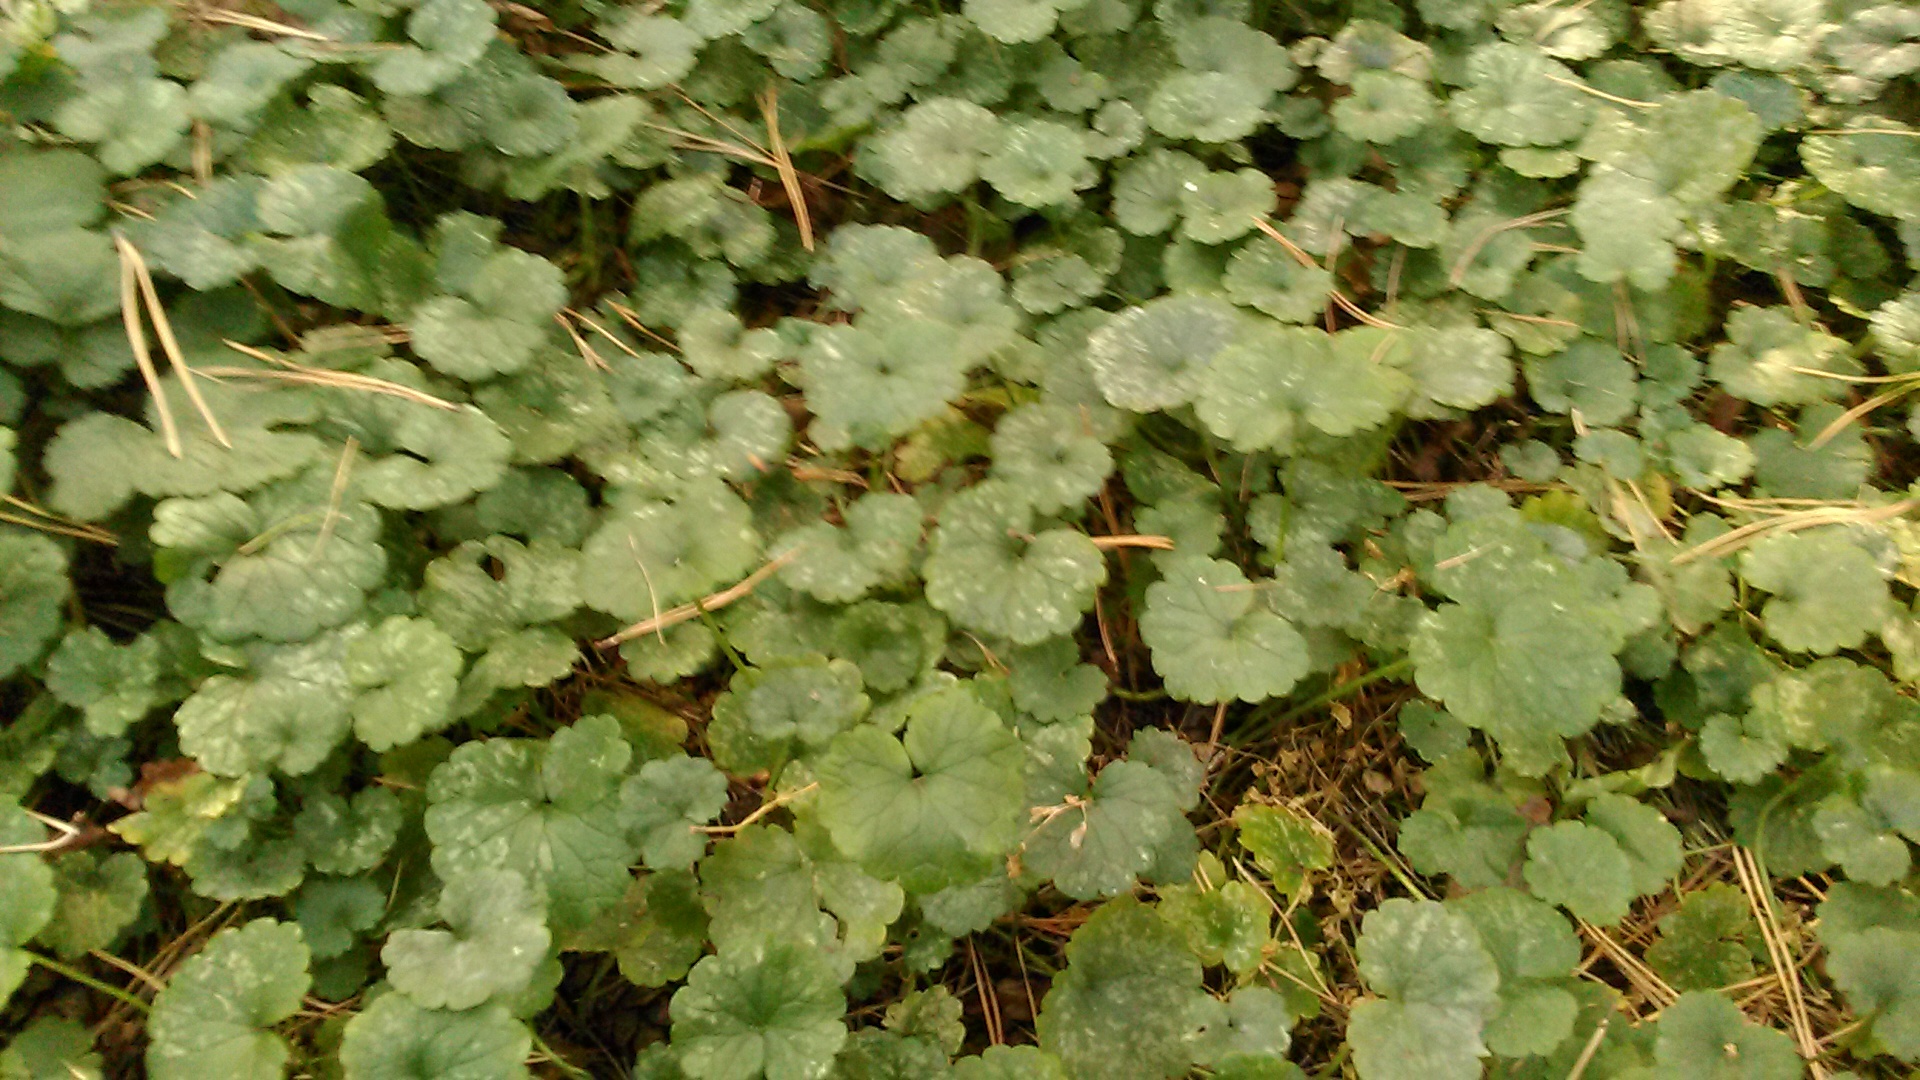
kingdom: Plantae
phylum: Tracheophyta
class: Magnoliopsida
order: Lamiales
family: Lamiaceae
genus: Glechoma
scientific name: Glechoma hederacea
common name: Ground ivy
